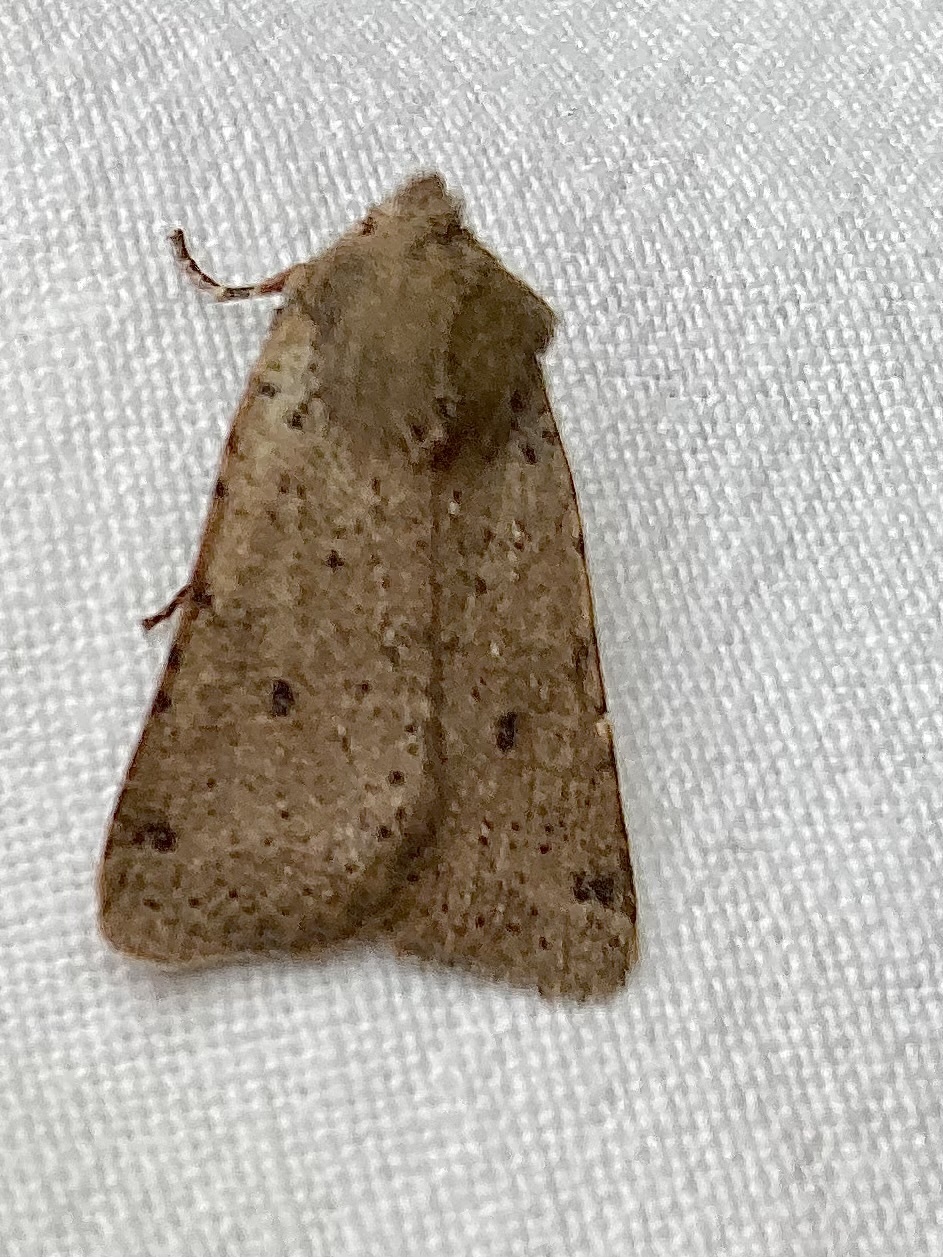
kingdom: Animalia
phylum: Arthropoda
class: Insecta
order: Lepidoptera
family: Noctuidae
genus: Agrochola
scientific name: Agrochola ruticilla
